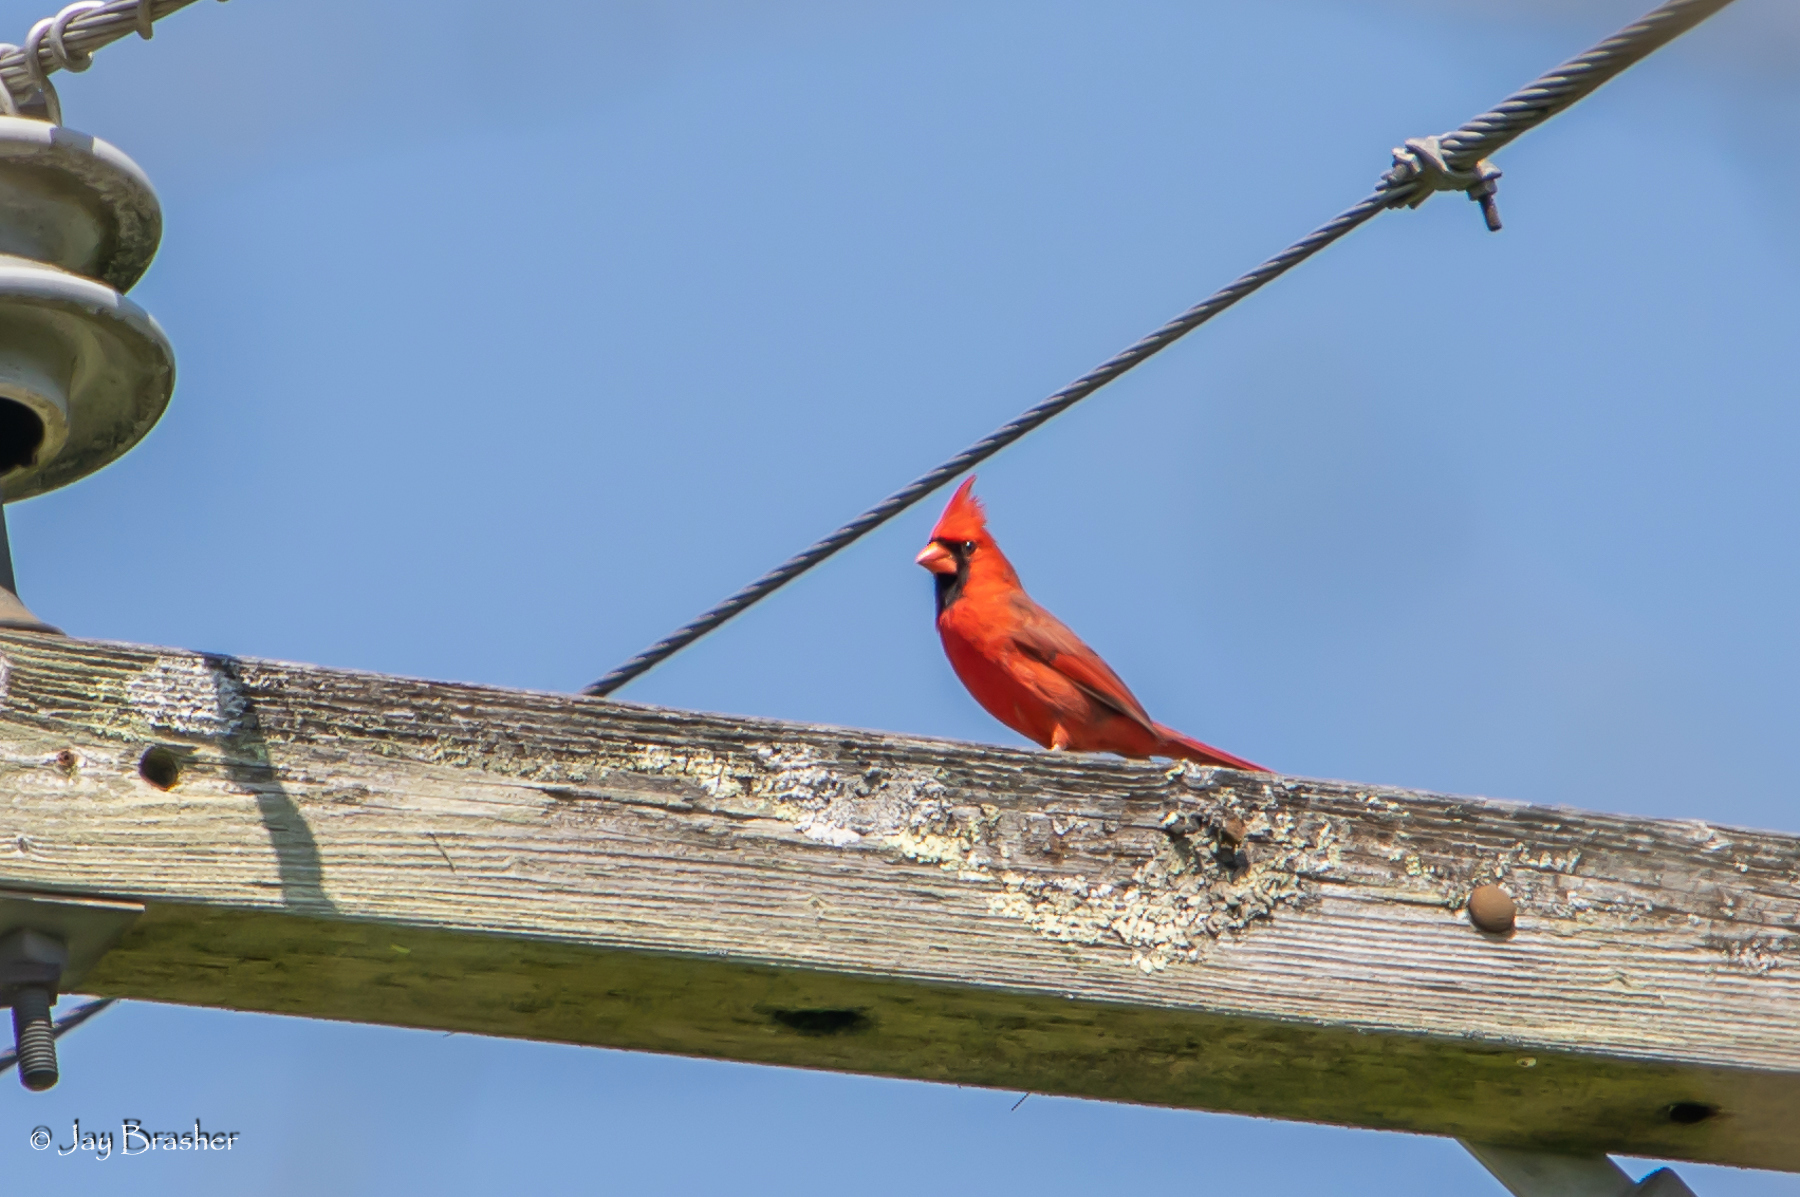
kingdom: Animalia
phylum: Chordata
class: Aves
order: Passeriformes
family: Cardinalidae
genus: Cardinalis
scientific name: Cardinalis cardinalis
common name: Northern cardinal
